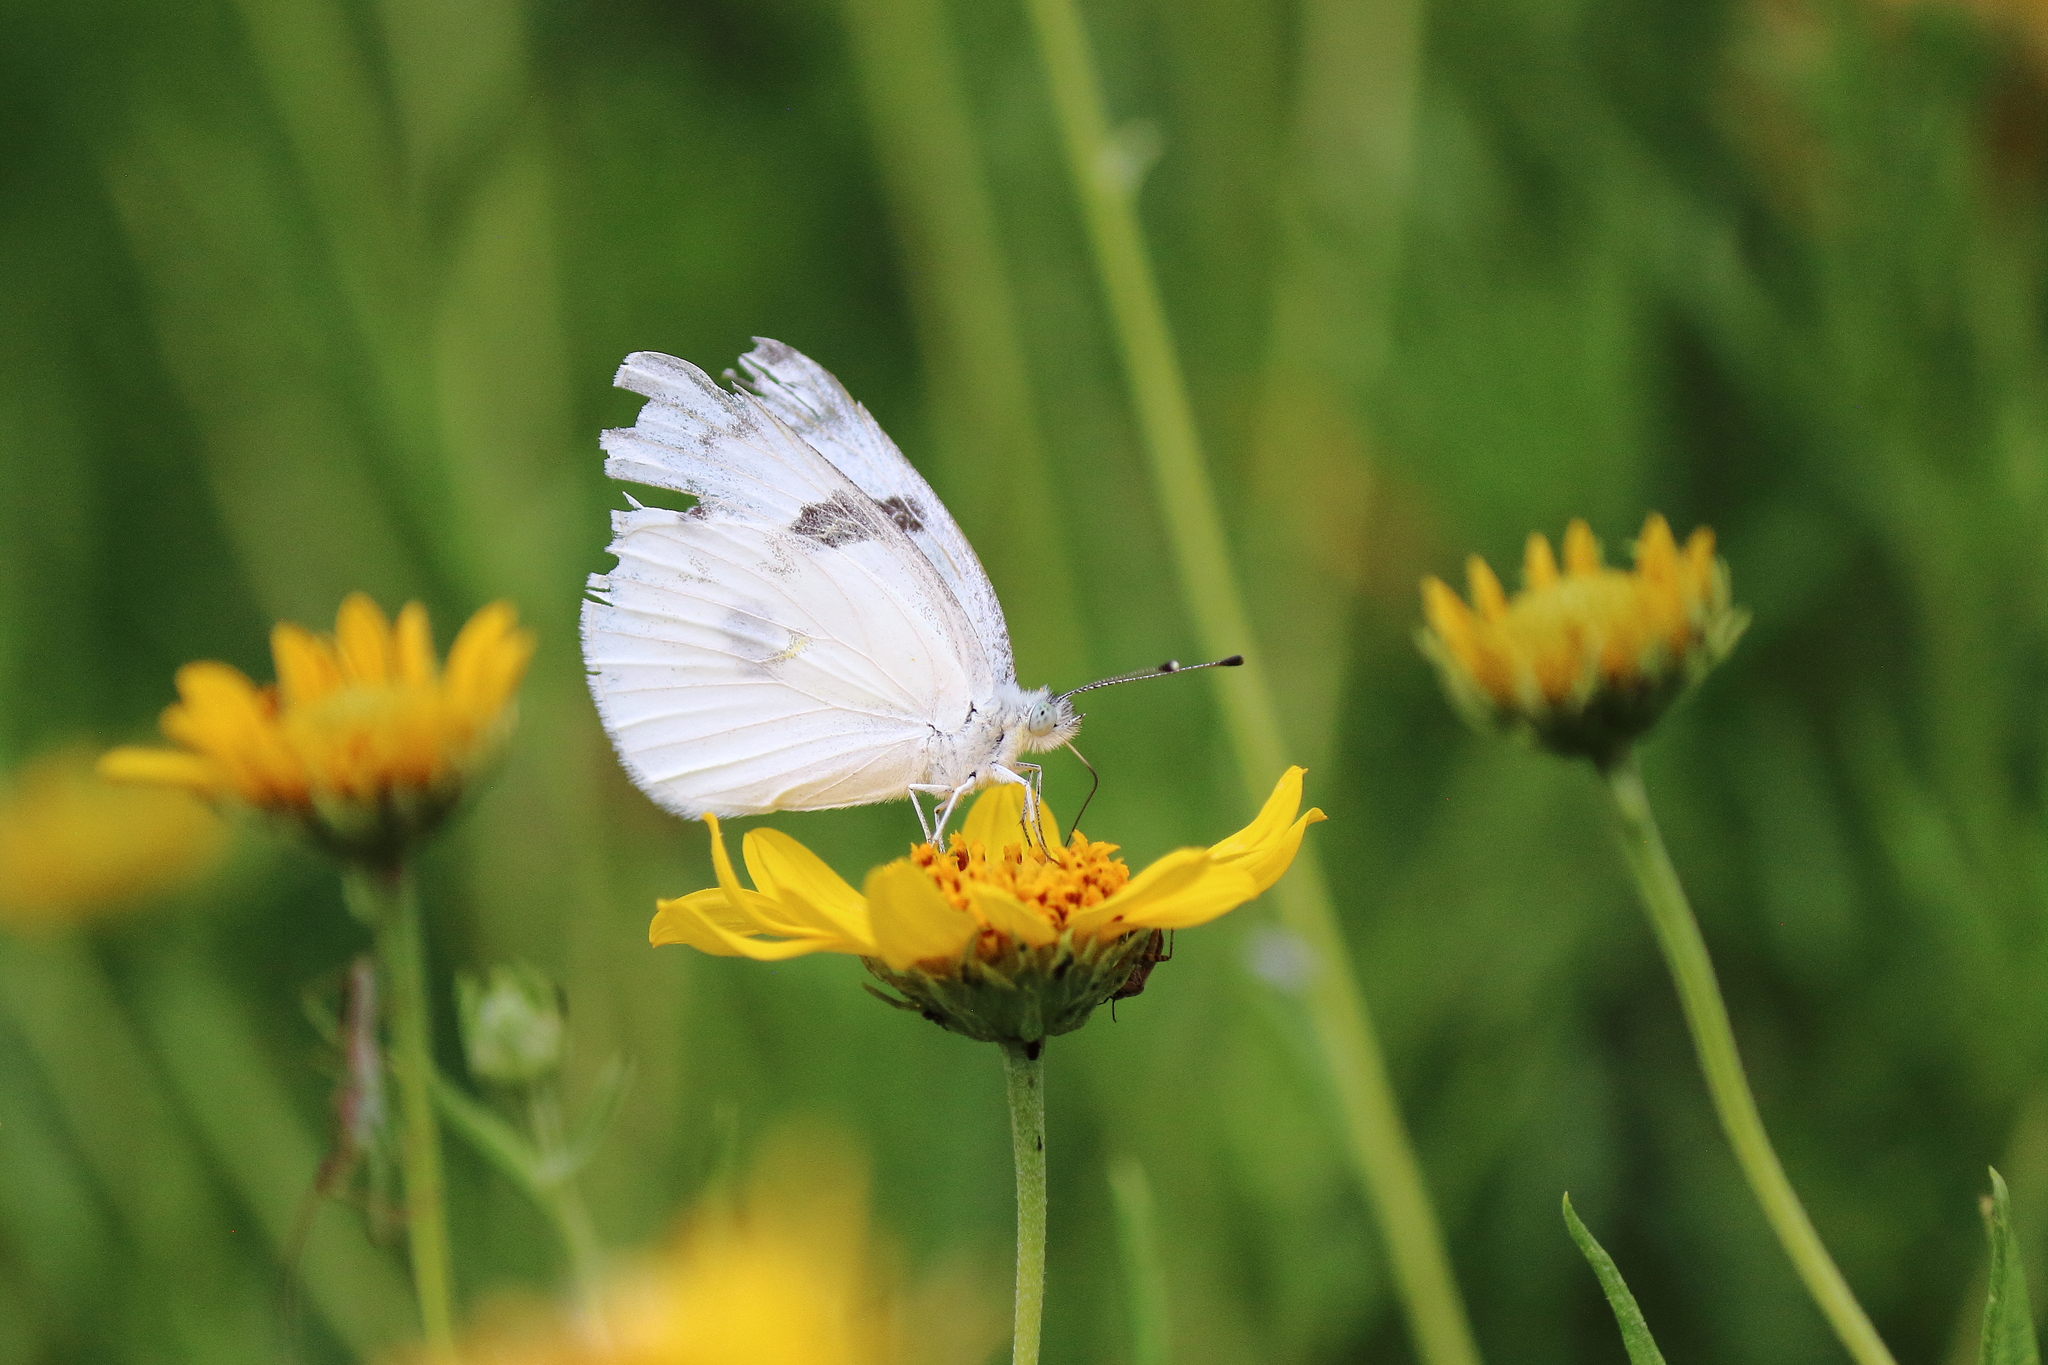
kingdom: Animalia
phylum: Arthropoda
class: Insecta
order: Lepidoptera
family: Pieridae
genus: Pontia
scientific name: Pontia protodice
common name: Checkered white
